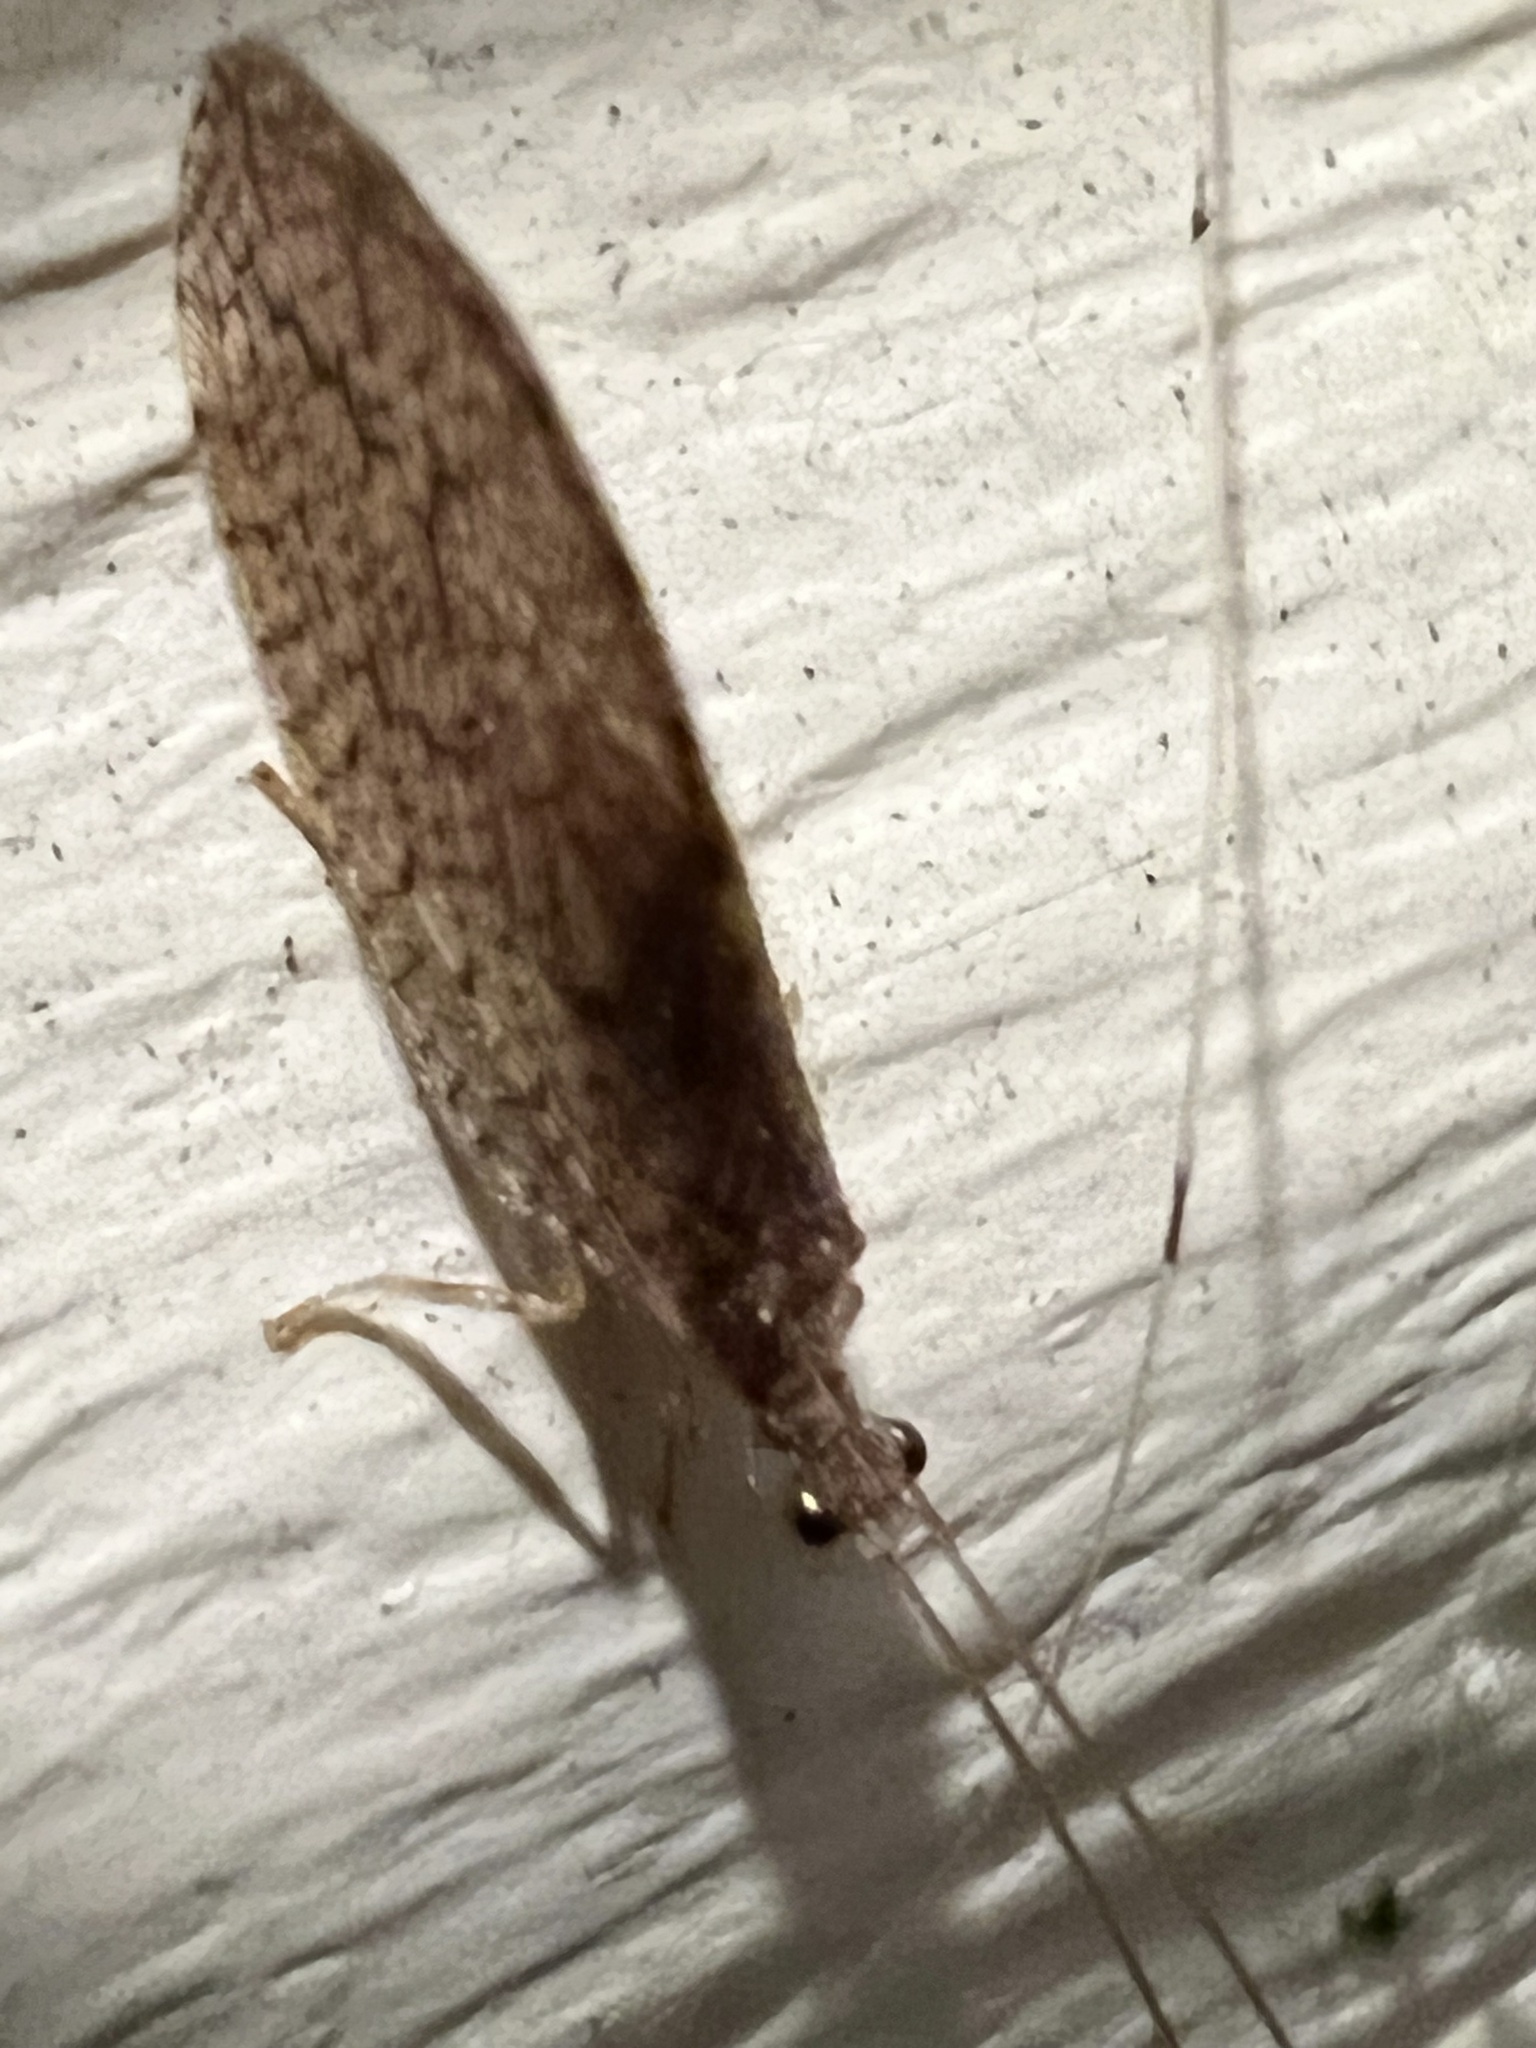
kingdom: Animalia
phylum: Arthropoda
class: Insecta
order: Neuroptera
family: Hemerobiidae
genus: Micromus
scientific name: Micromus posticus
